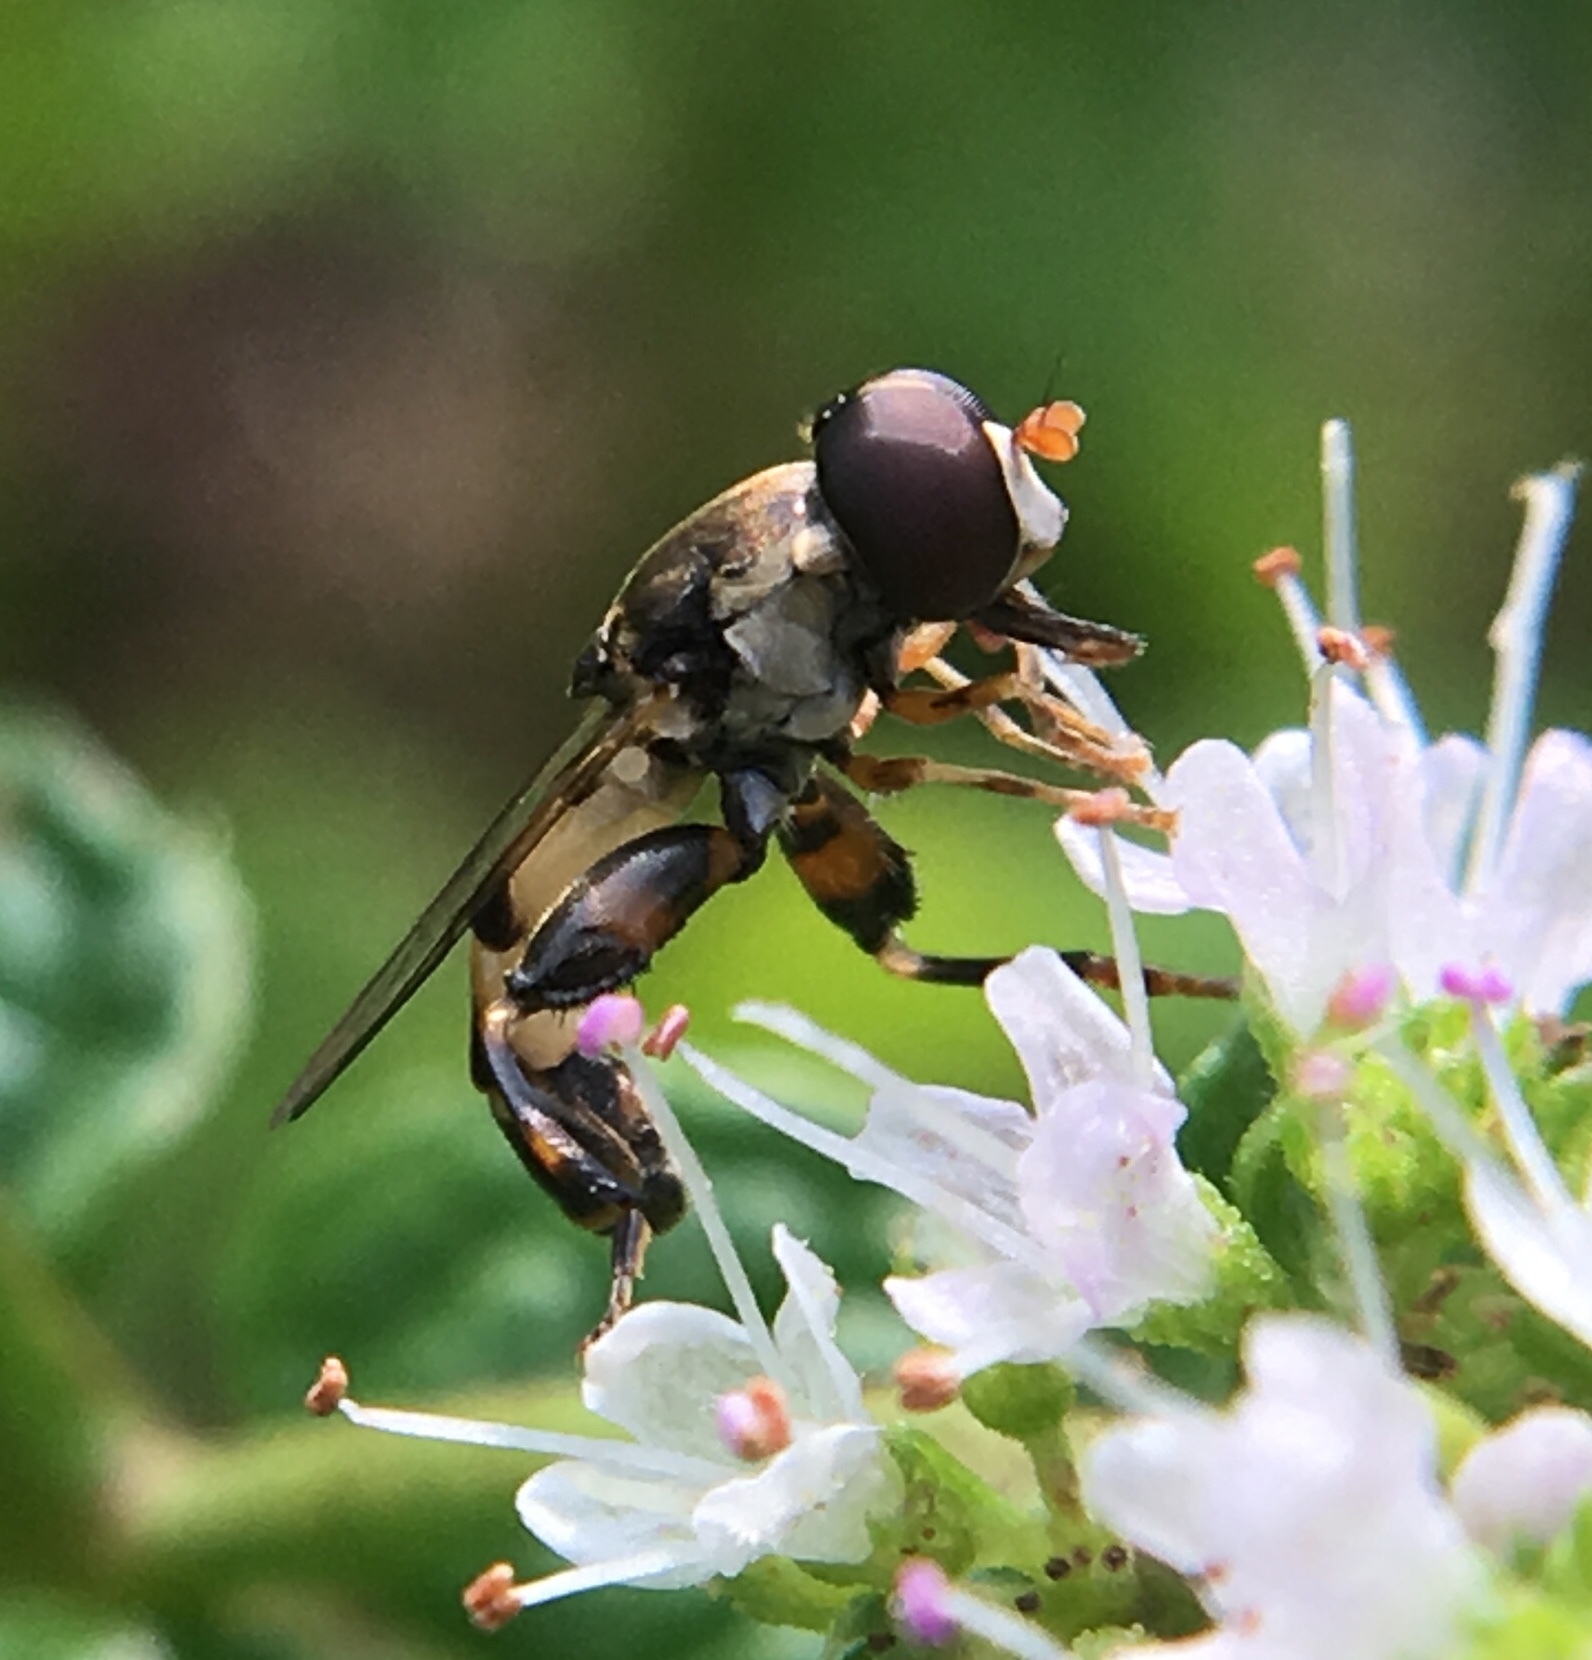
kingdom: Animalia
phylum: Arthropoda
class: Insecta
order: Diptera
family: Syrphidae
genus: Syritta
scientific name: Syritta pipiens
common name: Hover fly
